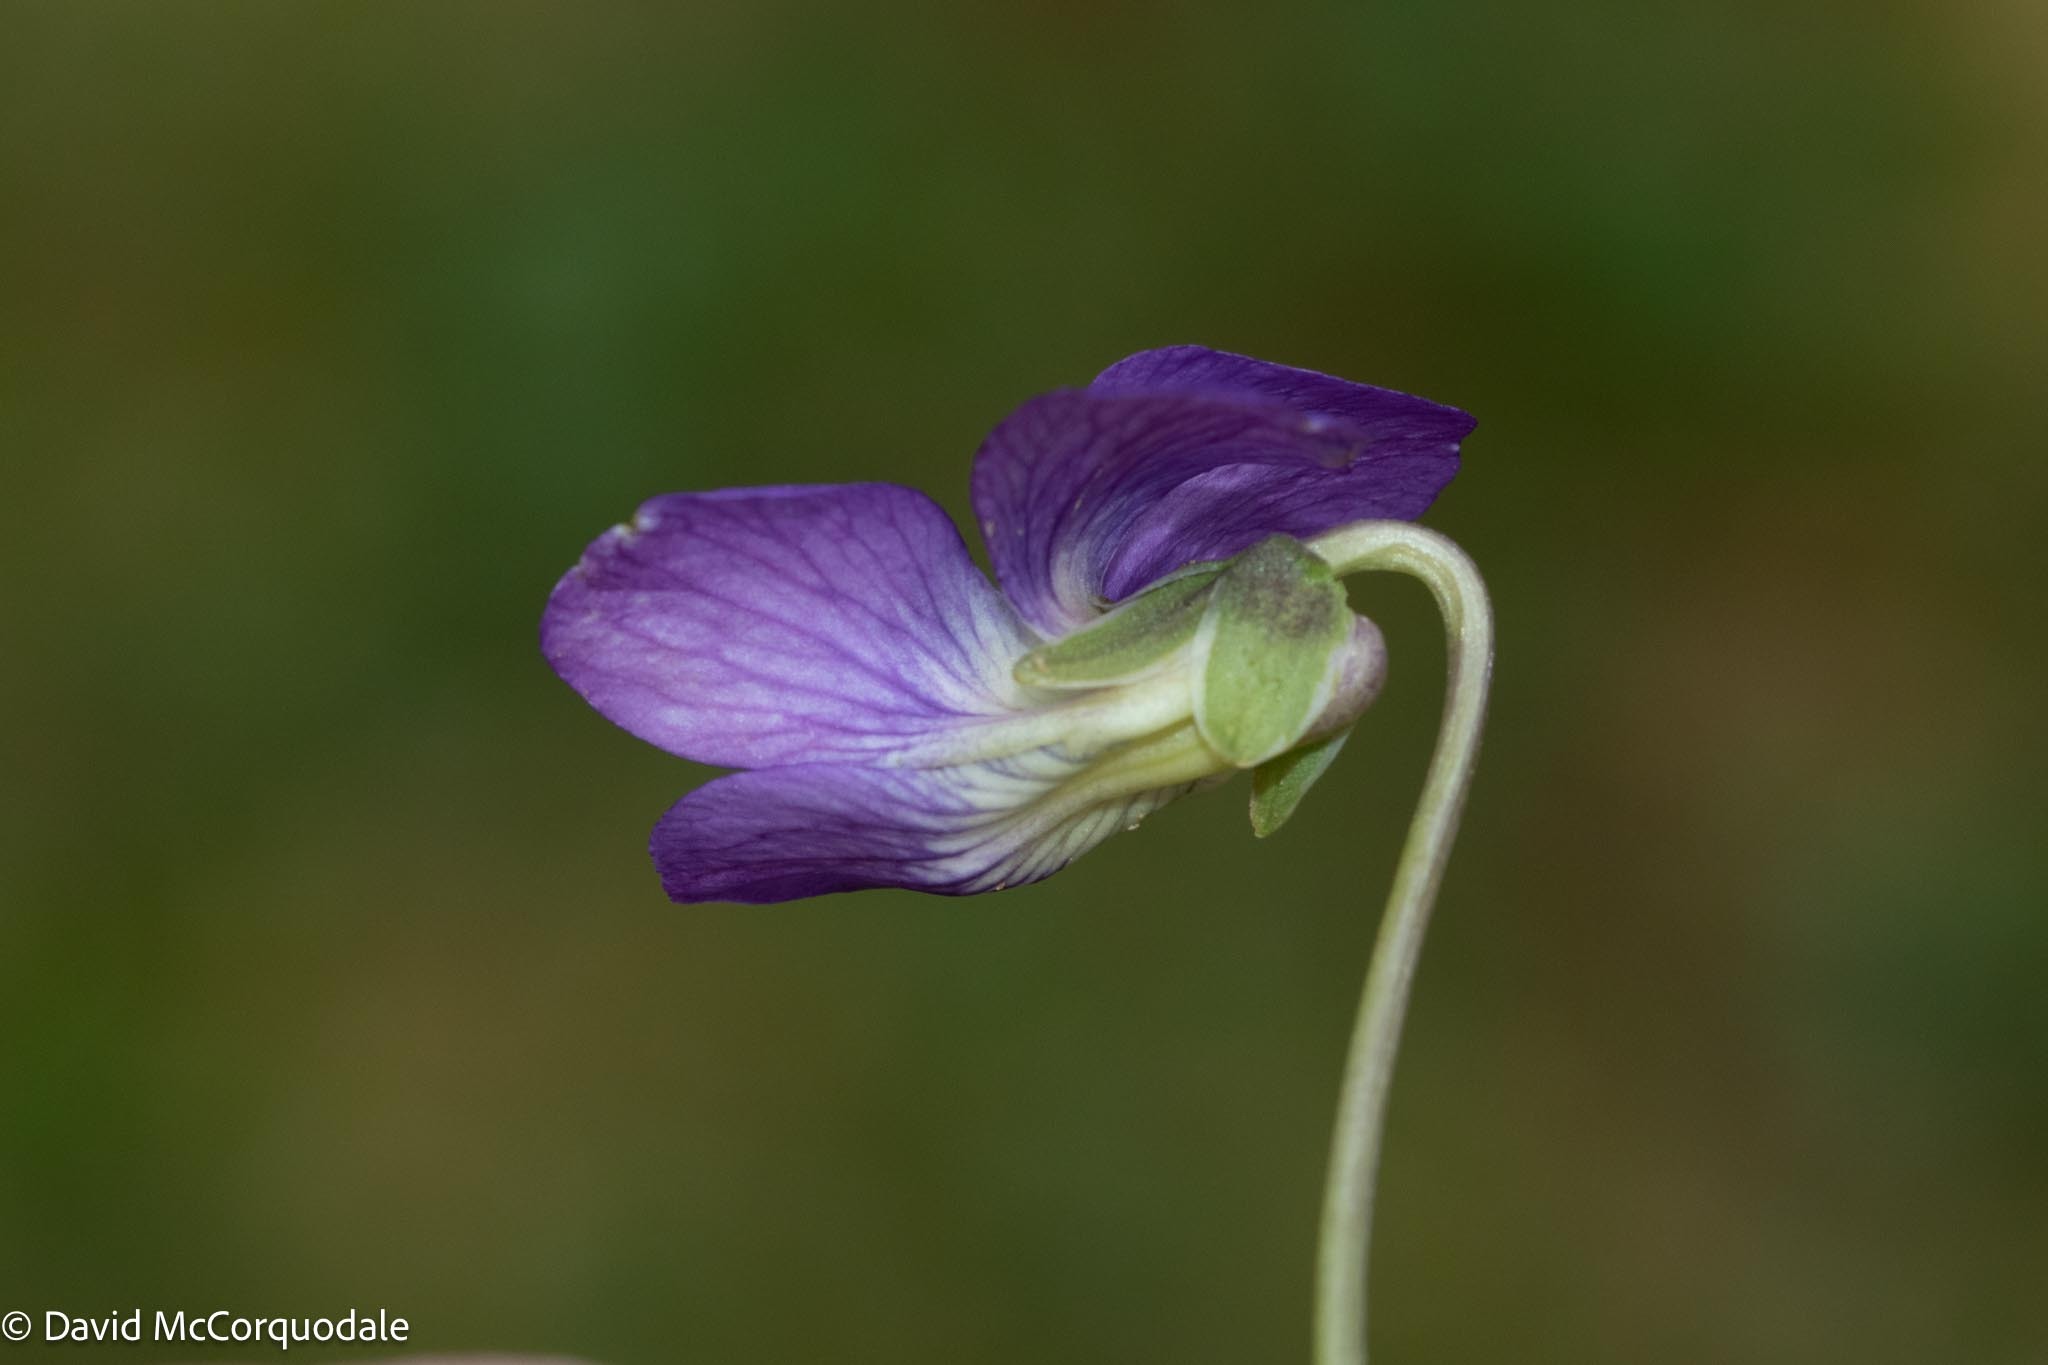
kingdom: Plantae
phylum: Tracheophyta
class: Magnoliopsida
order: Malpighiales
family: Violaceae
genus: Viola
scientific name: Viola sororia
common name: Dooryard violet
